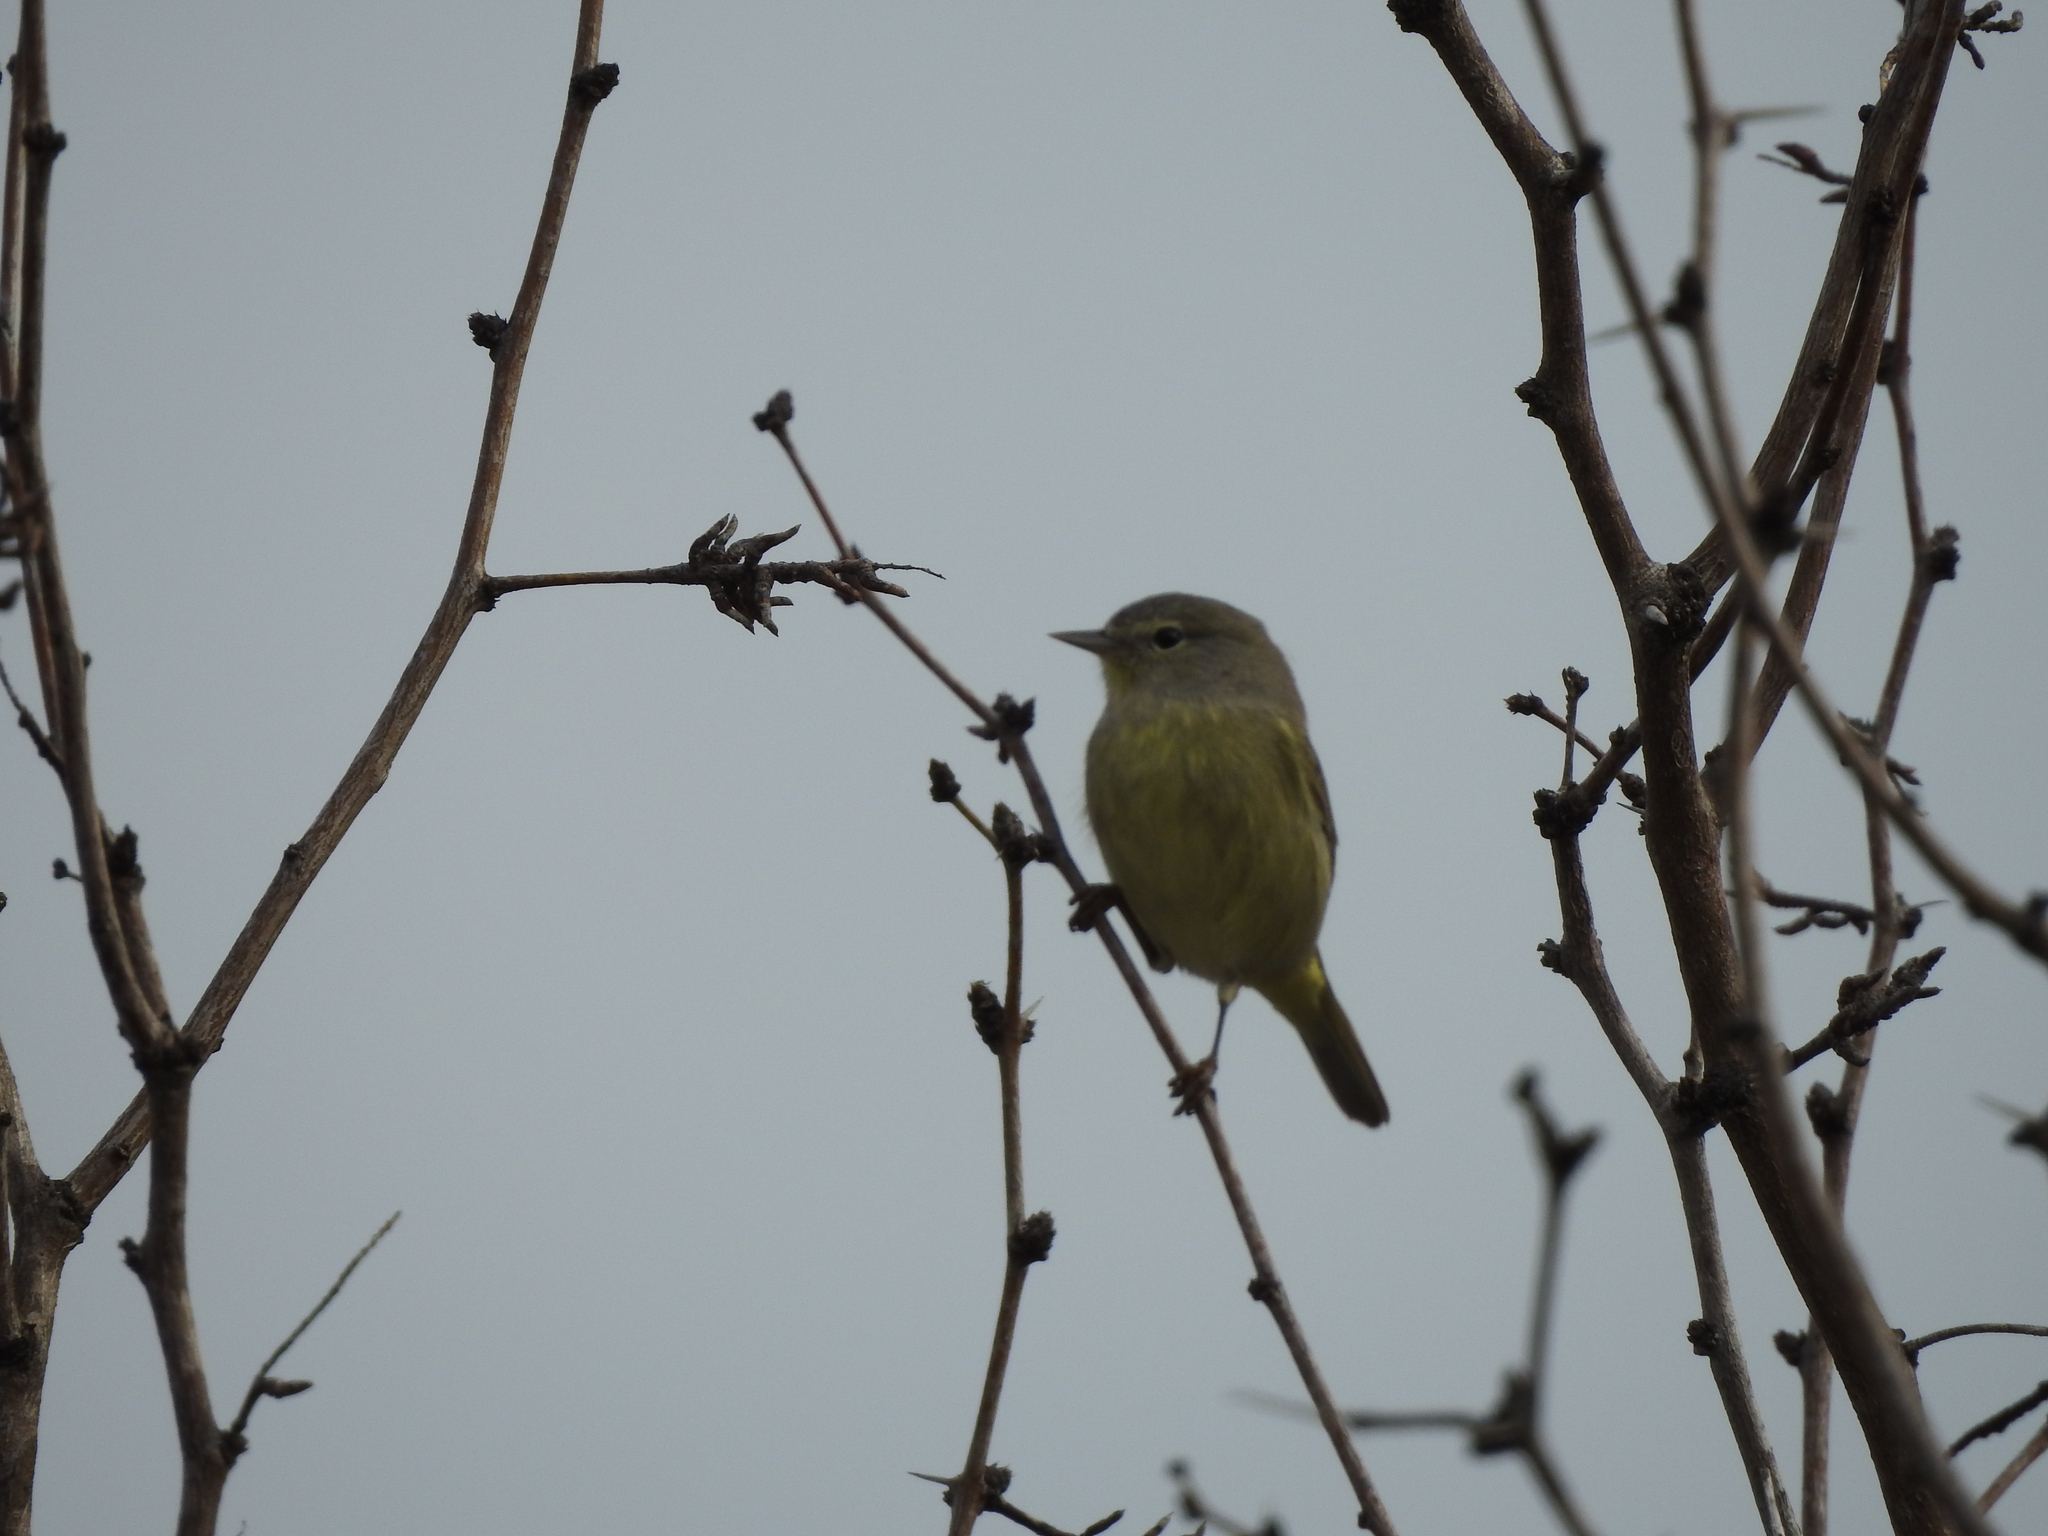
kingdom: Animalia
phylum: Chordata
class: Aves
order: Passeriformes
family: Parulidae
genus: Leiothlypis
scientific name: Leiothlypis celata
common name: Orange-crowned warbler
